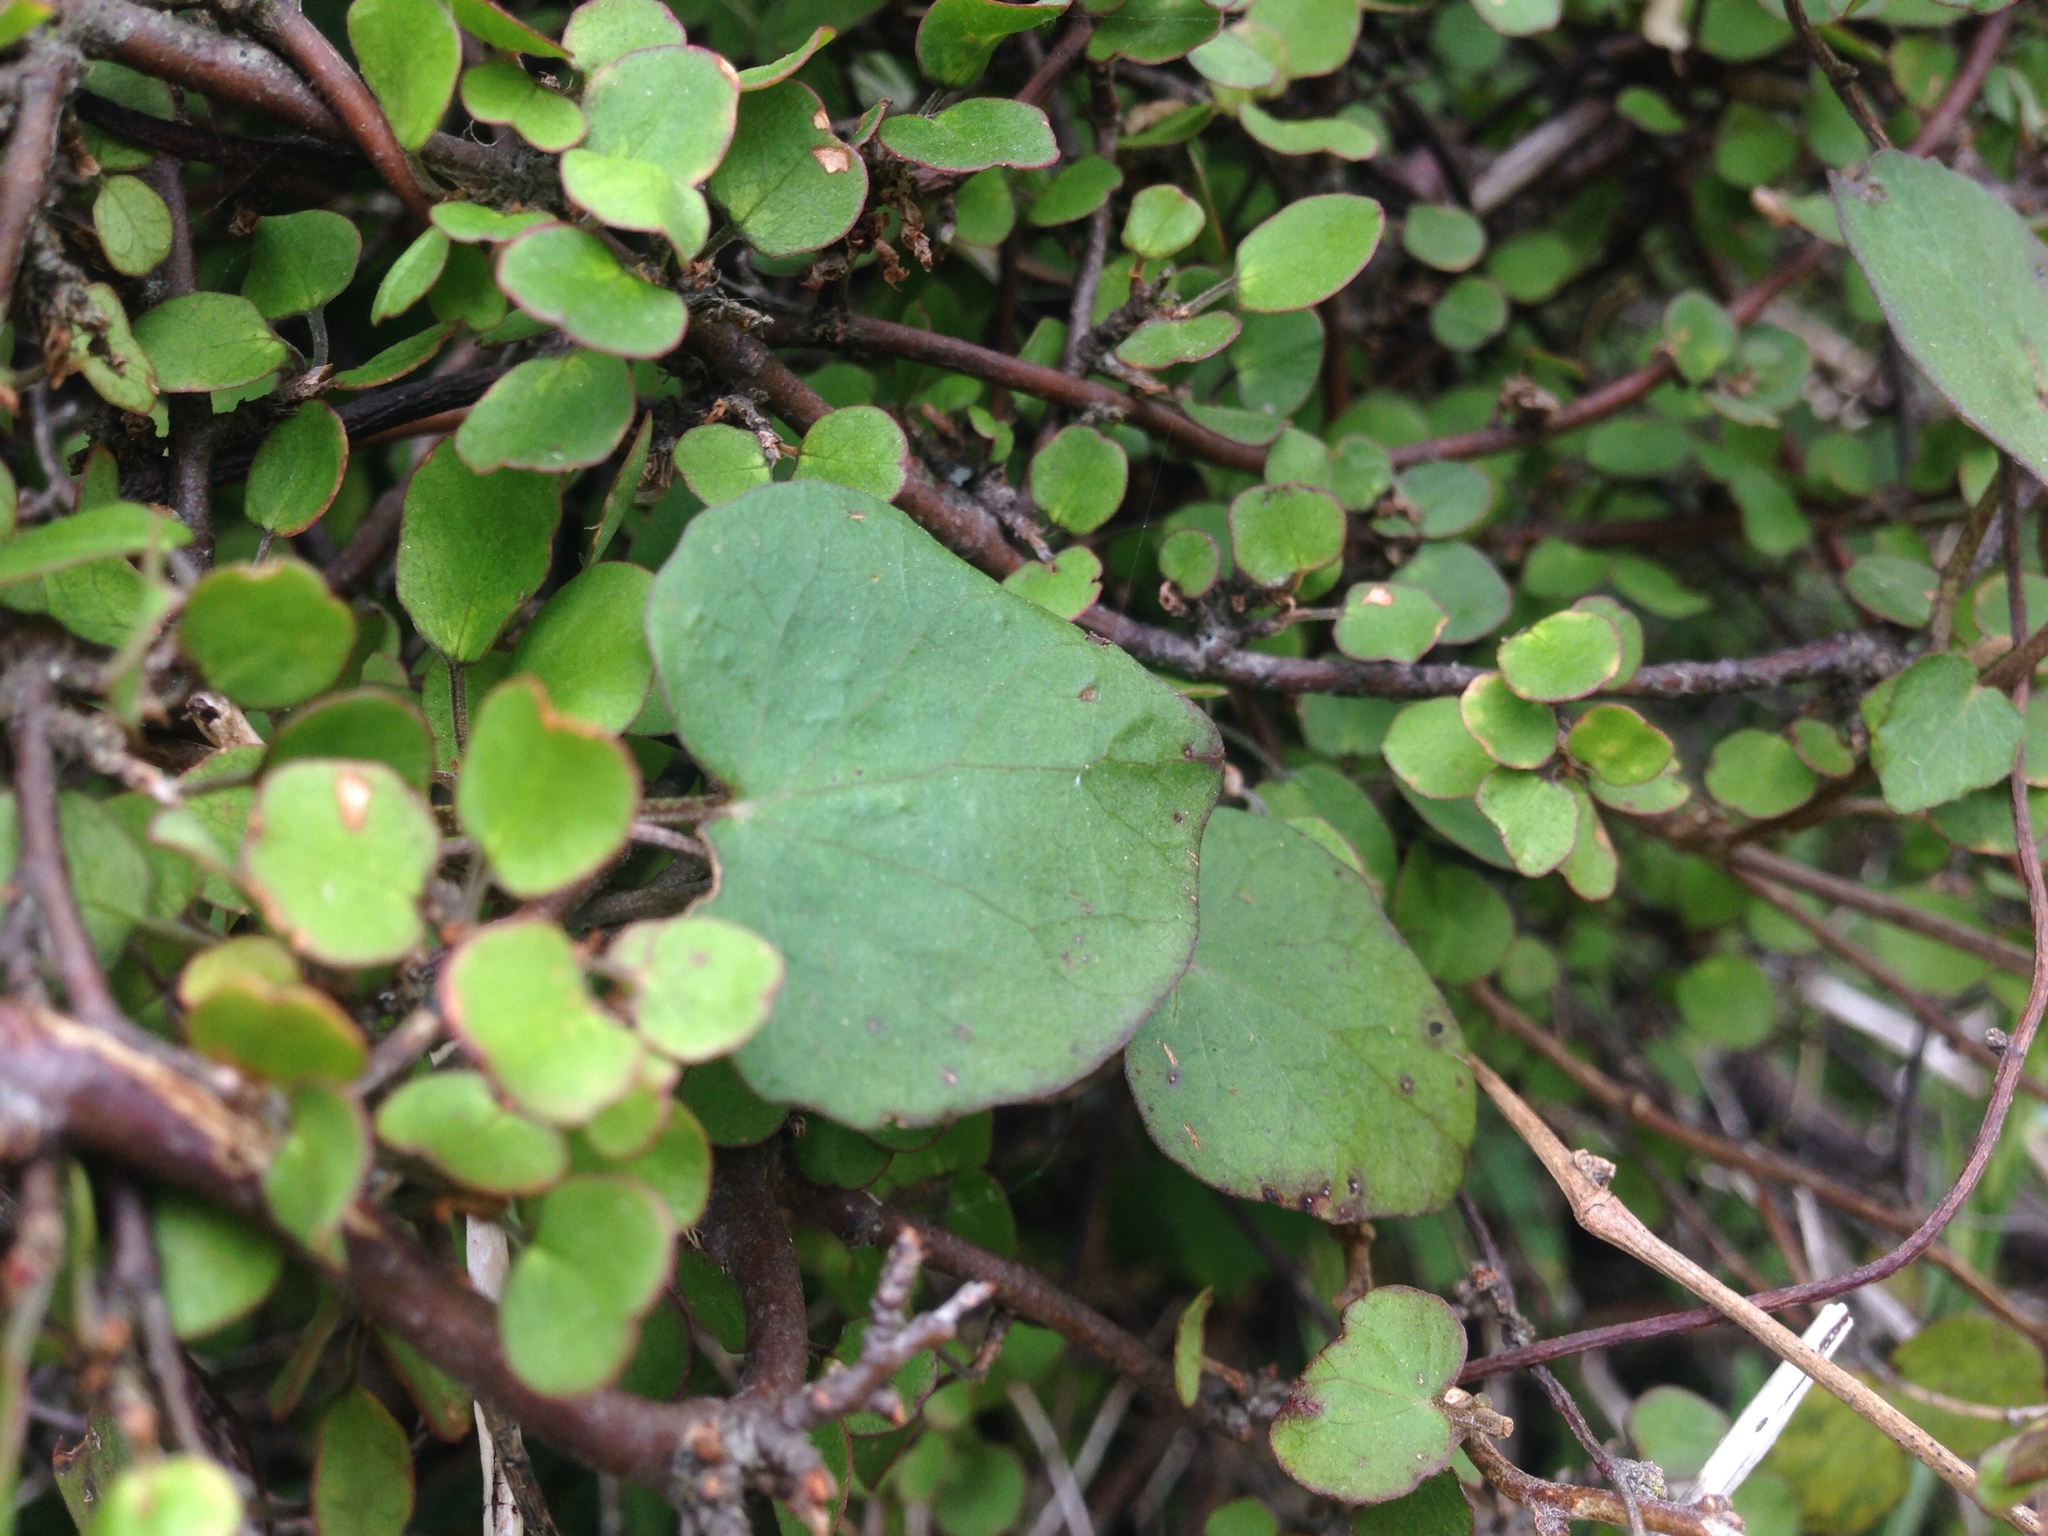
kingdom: Plantae
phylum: Tracheophyta
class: Magnoliopsida
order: Solanales
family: Convolvulaceae
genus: Calystegia
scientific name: Calystegia tuguriorum
